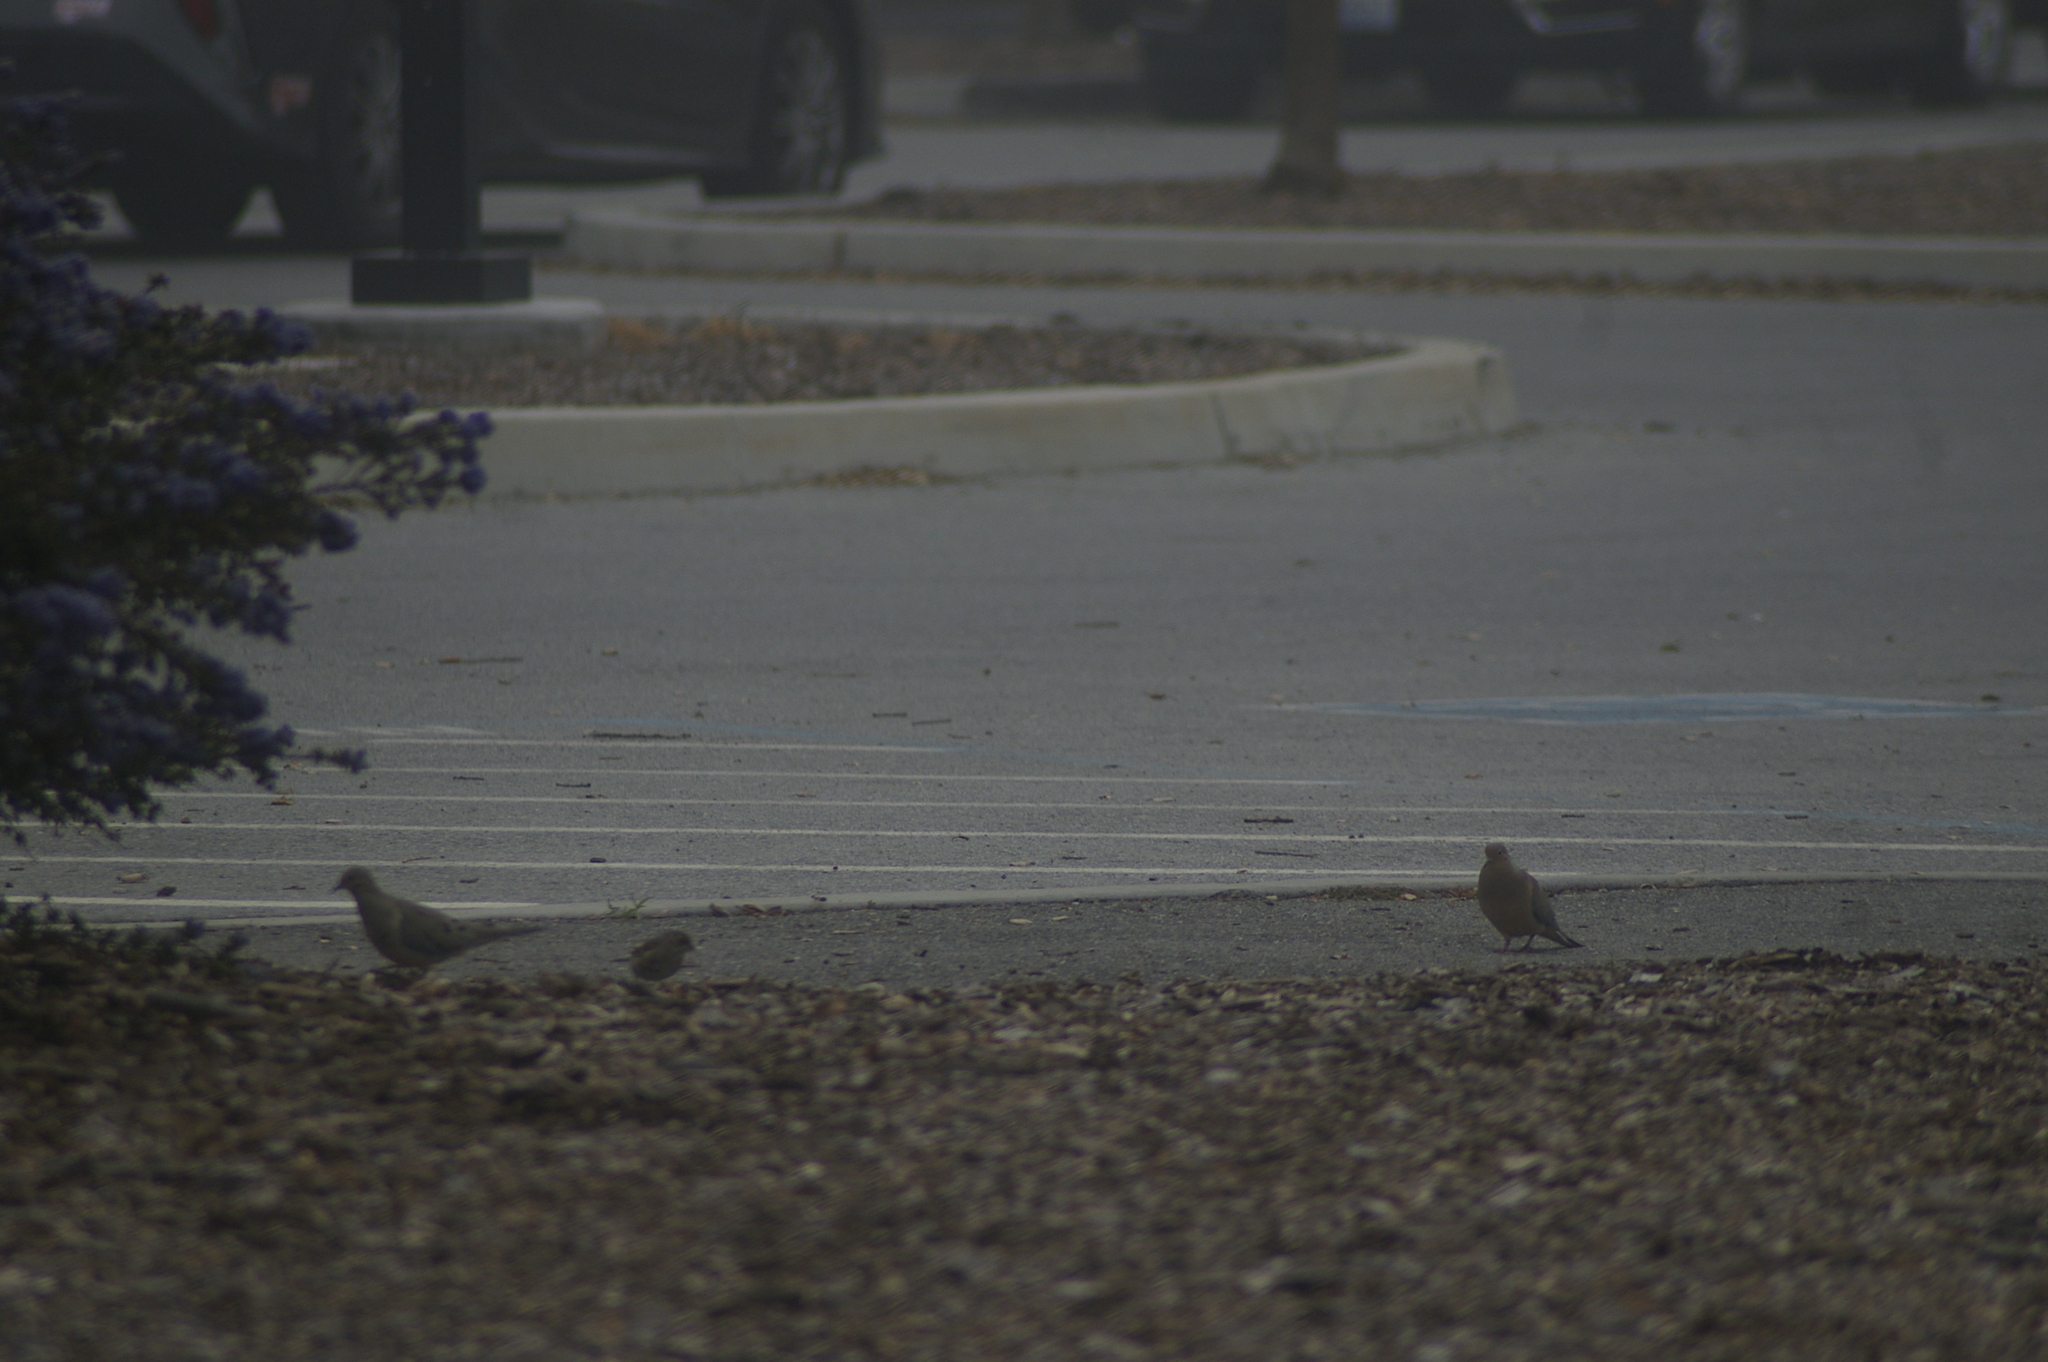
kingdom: Animalia
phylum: Chordata
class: Aves
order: Columbiformes
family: Columbidae
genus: Zenaida
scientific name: Zenaida macroura
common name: Mourning dove
